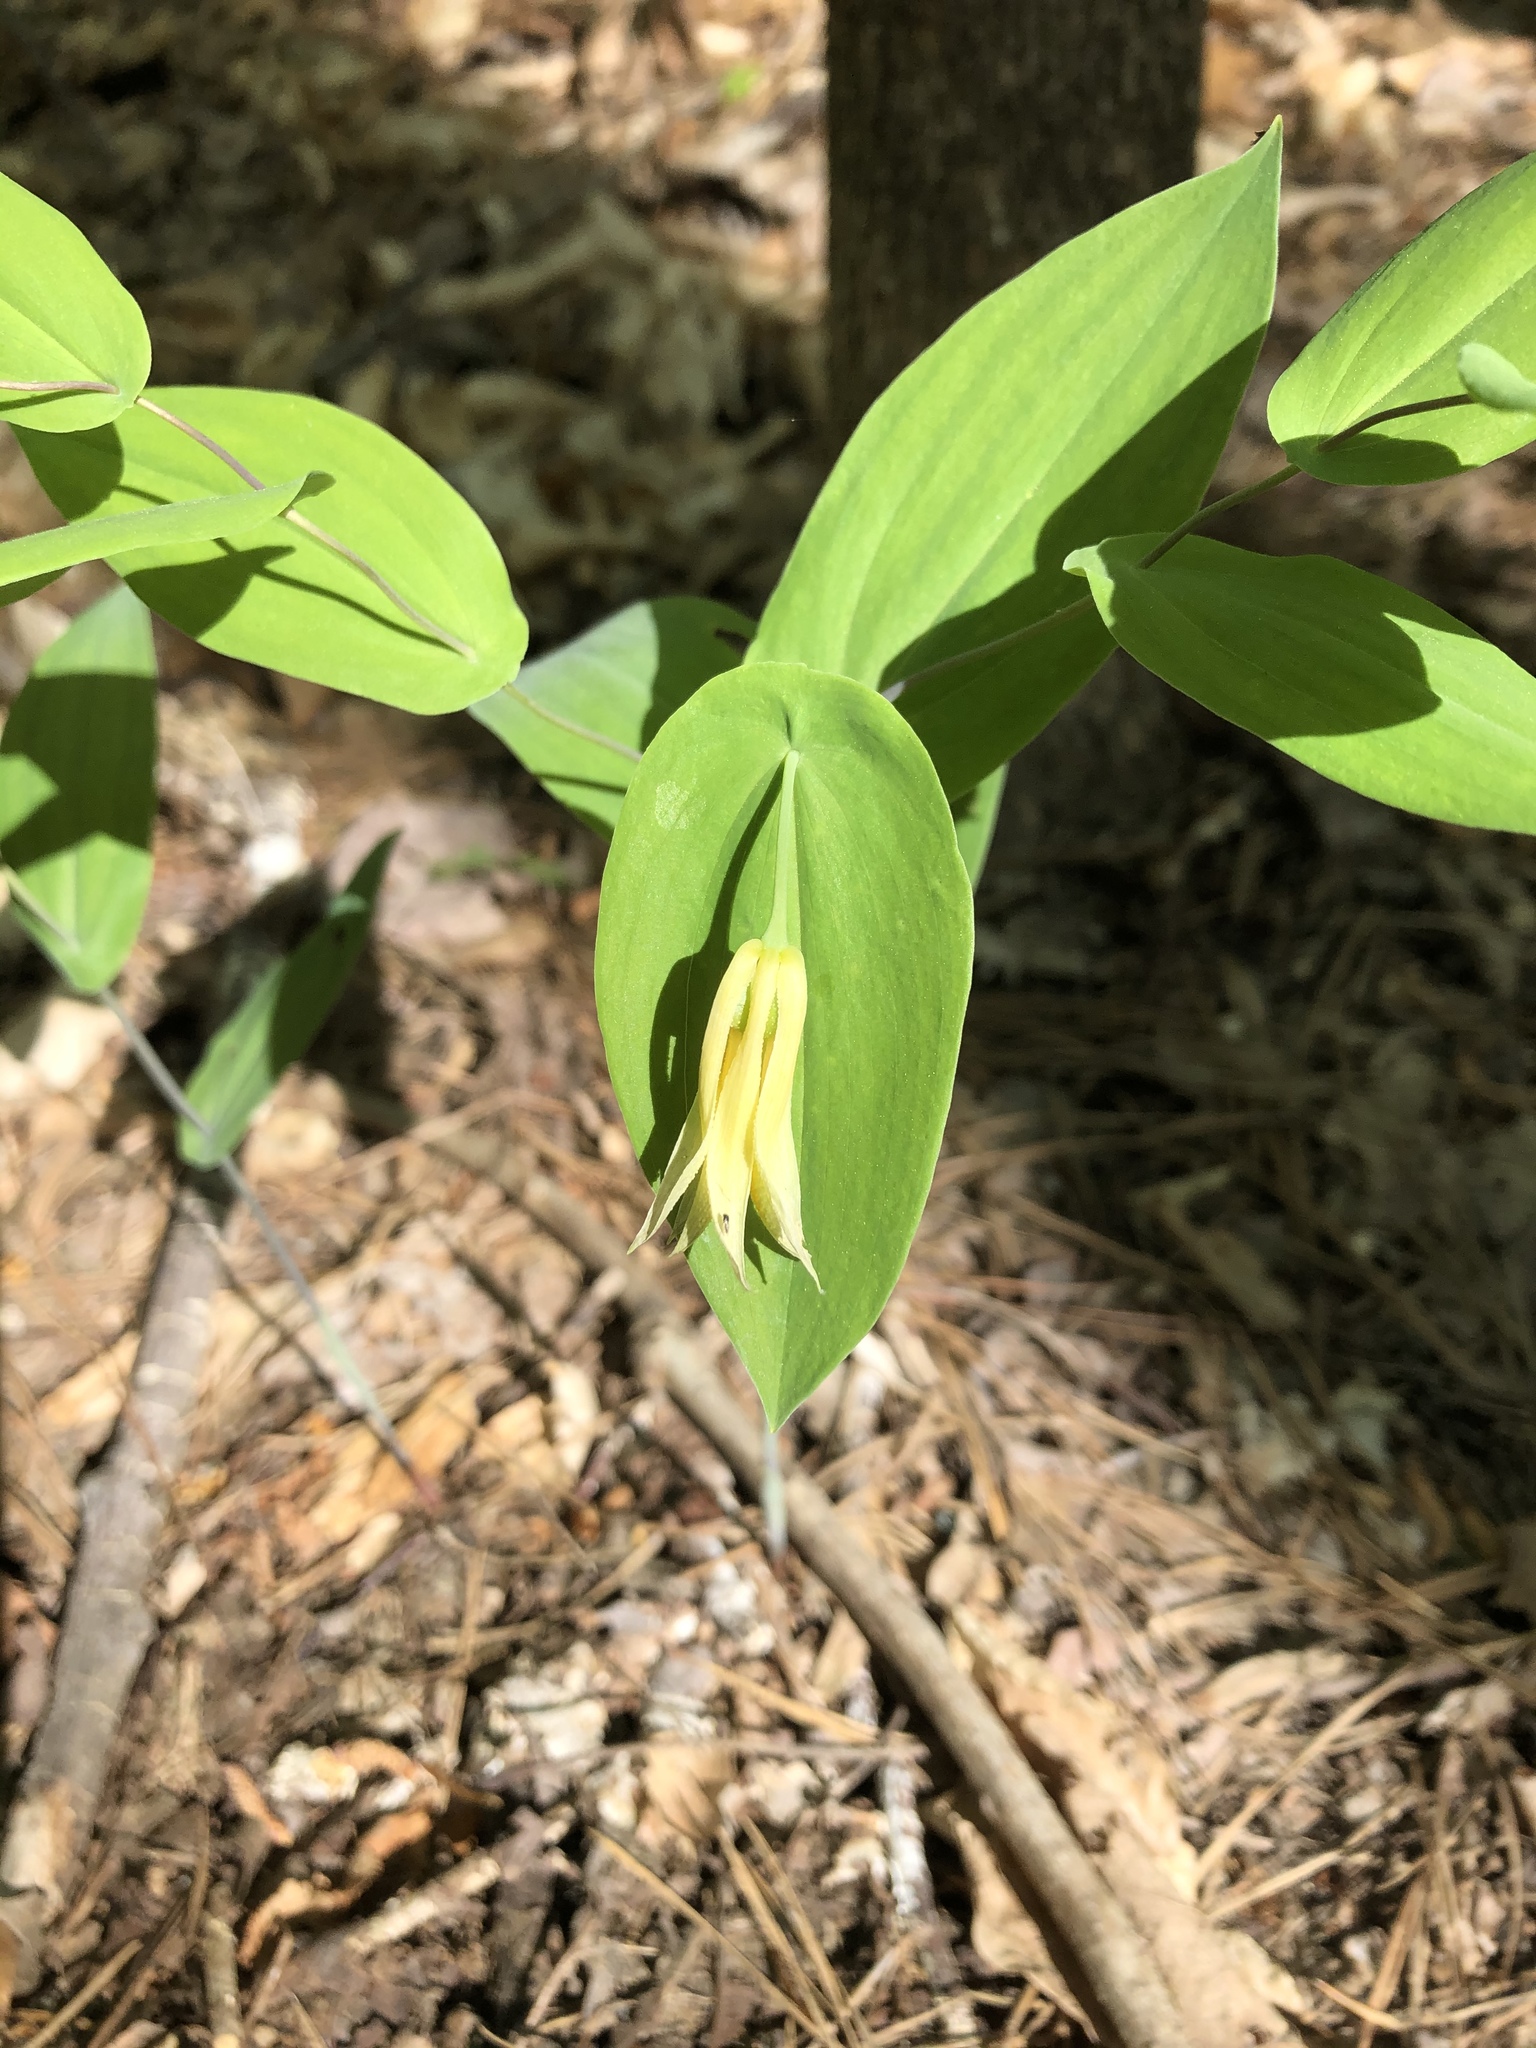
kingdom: Plantae
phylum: Tracheophyta
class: Liliopsida
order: Liliales
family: Colchicaceae
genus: Uvularia
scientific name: Uvularia perfoliata
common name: Perfoliate bellwort
